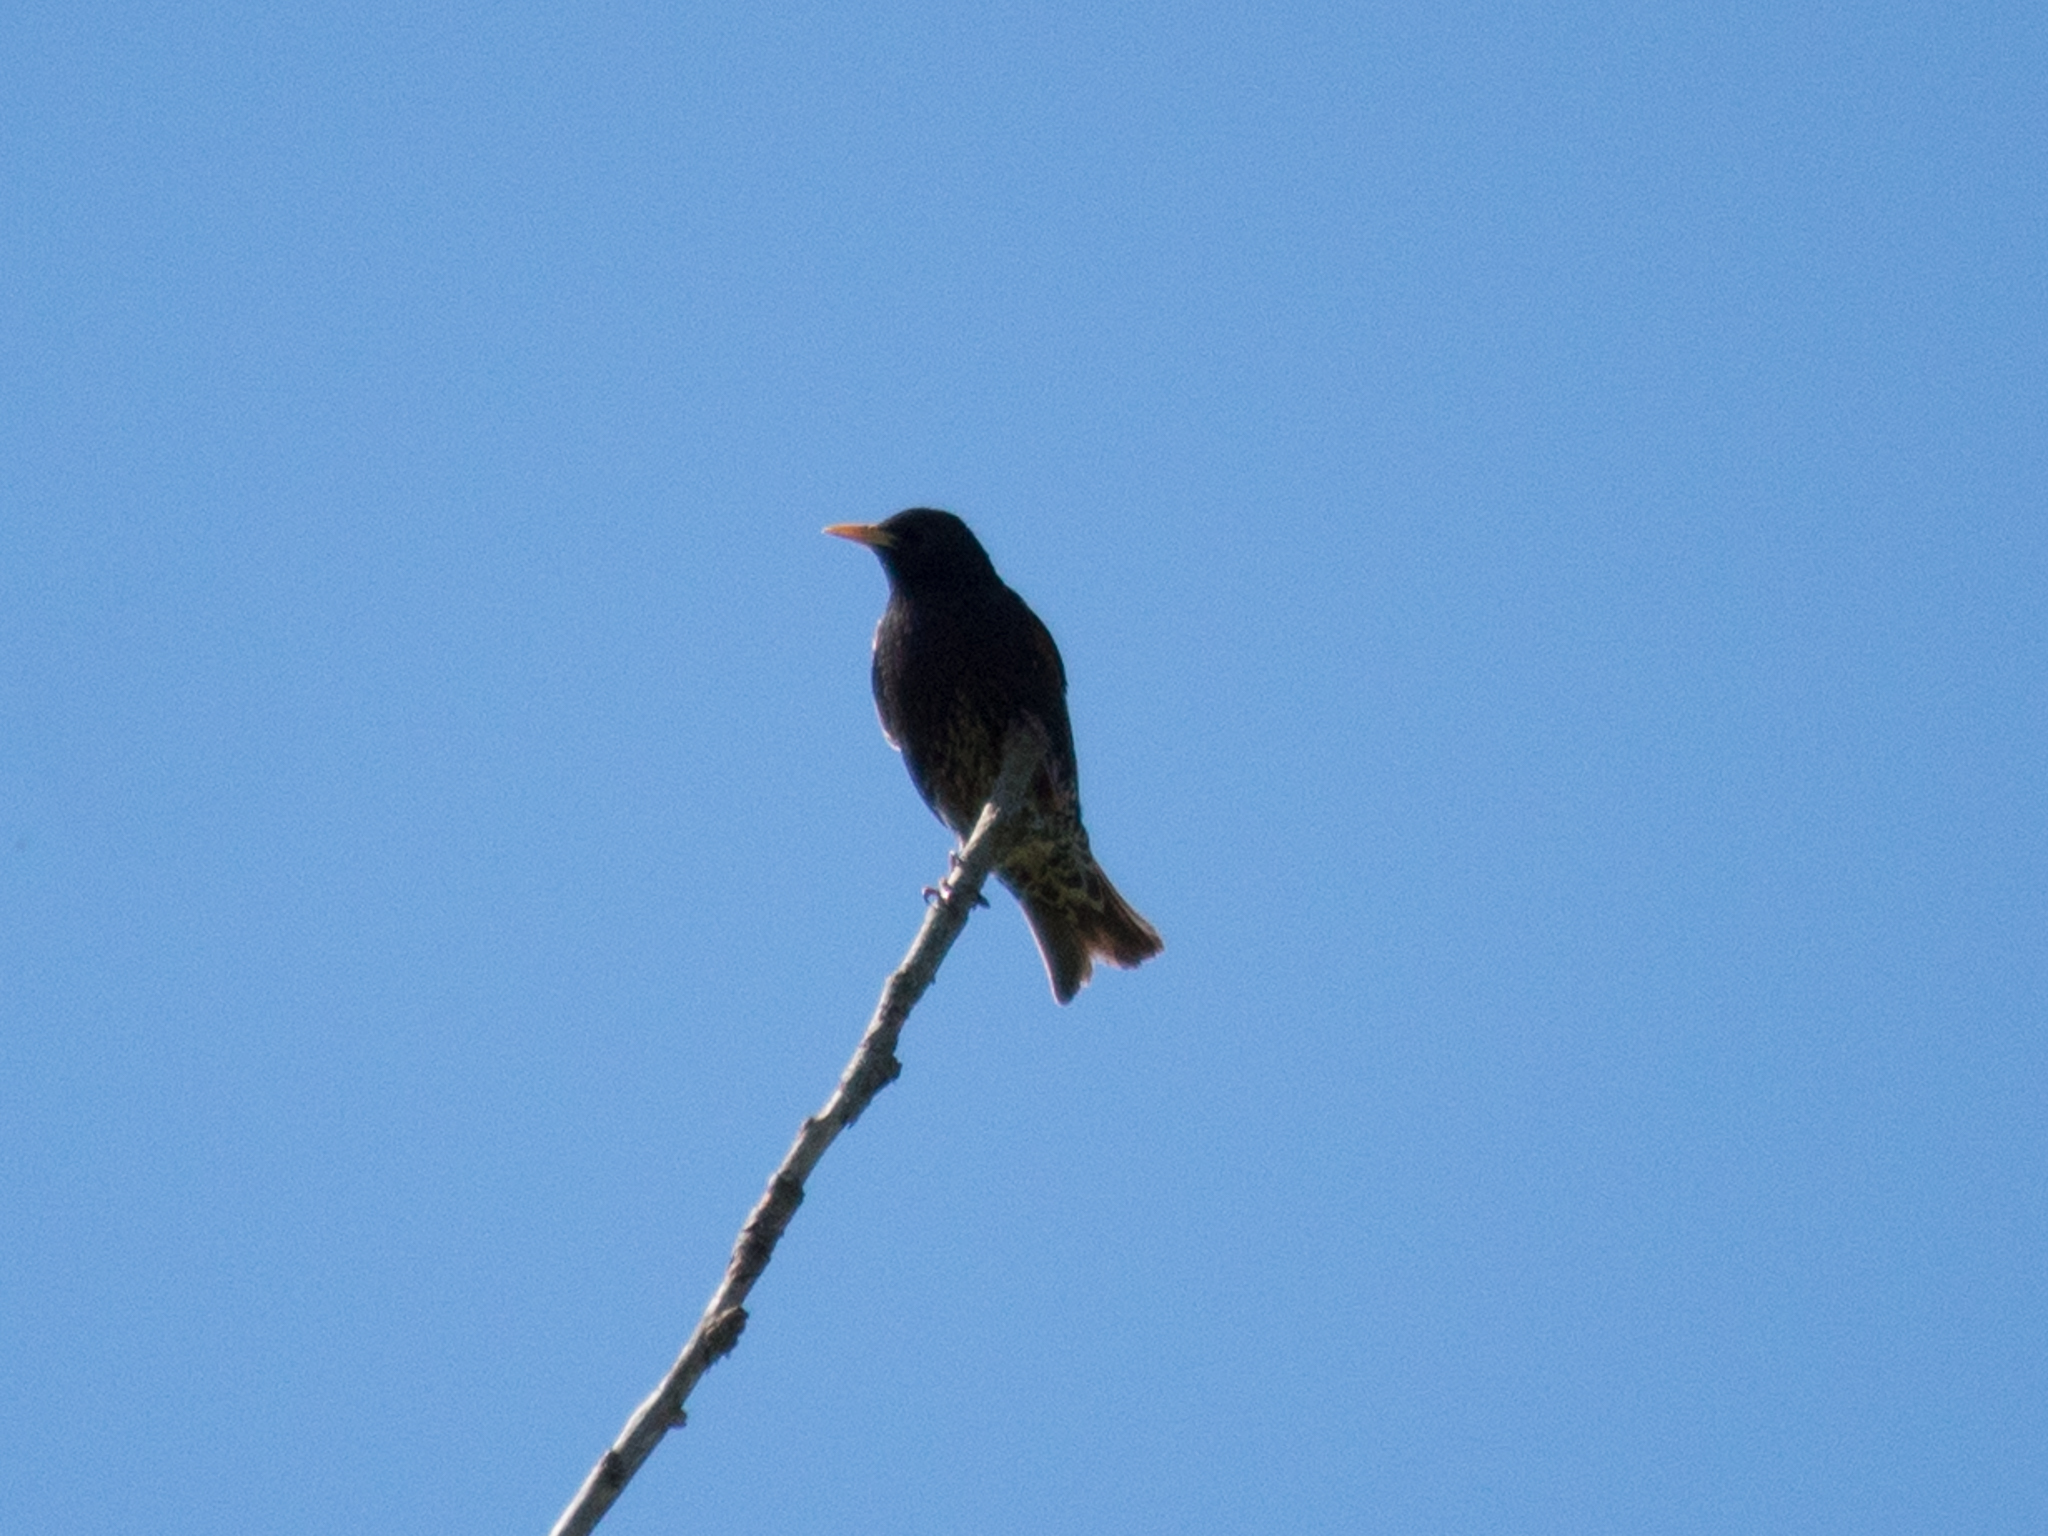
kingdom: Animalia
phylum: Chordata
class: Aves
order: Passeriformes
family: Sturnidae
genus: Sturnus
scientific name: Sturnus vulgaris
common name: Common starling
